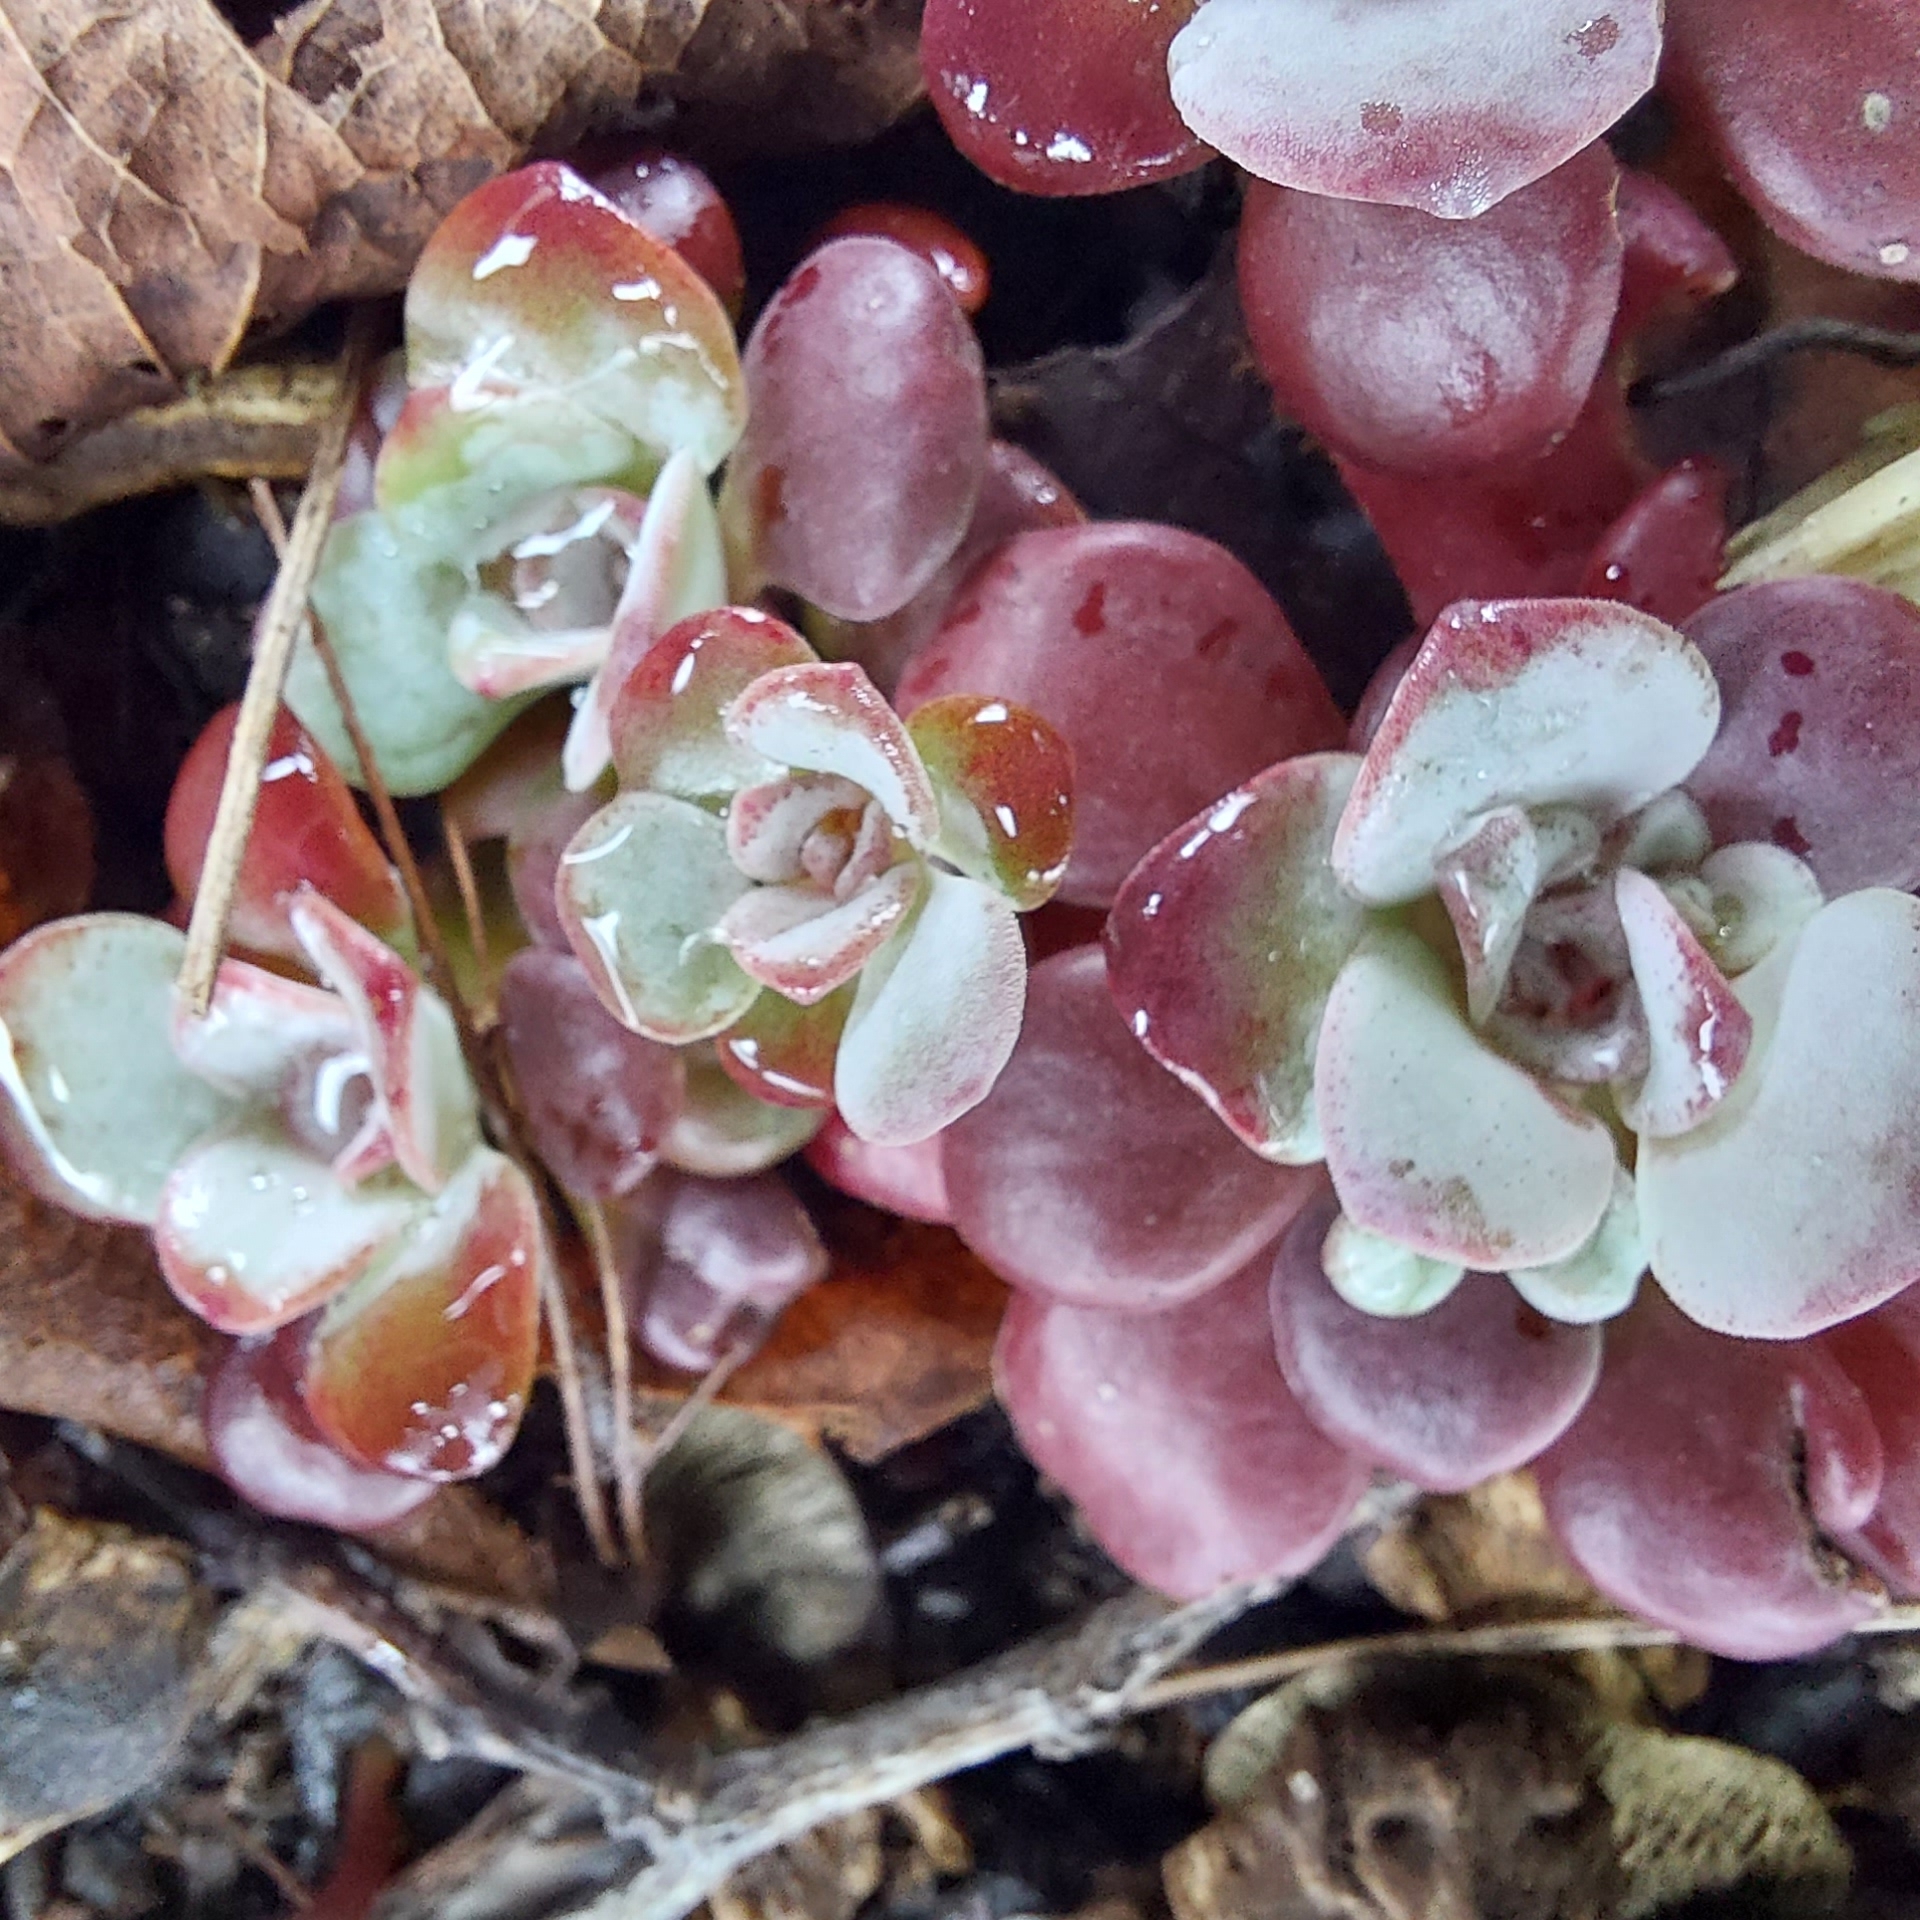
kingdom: Plantae
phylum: Tracheophyta
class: Magnoliopsida
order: Saxifragales
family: Crassulaceae
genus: Sedum
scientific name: Sedum spathulifolium
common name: Colorado stonecrop
